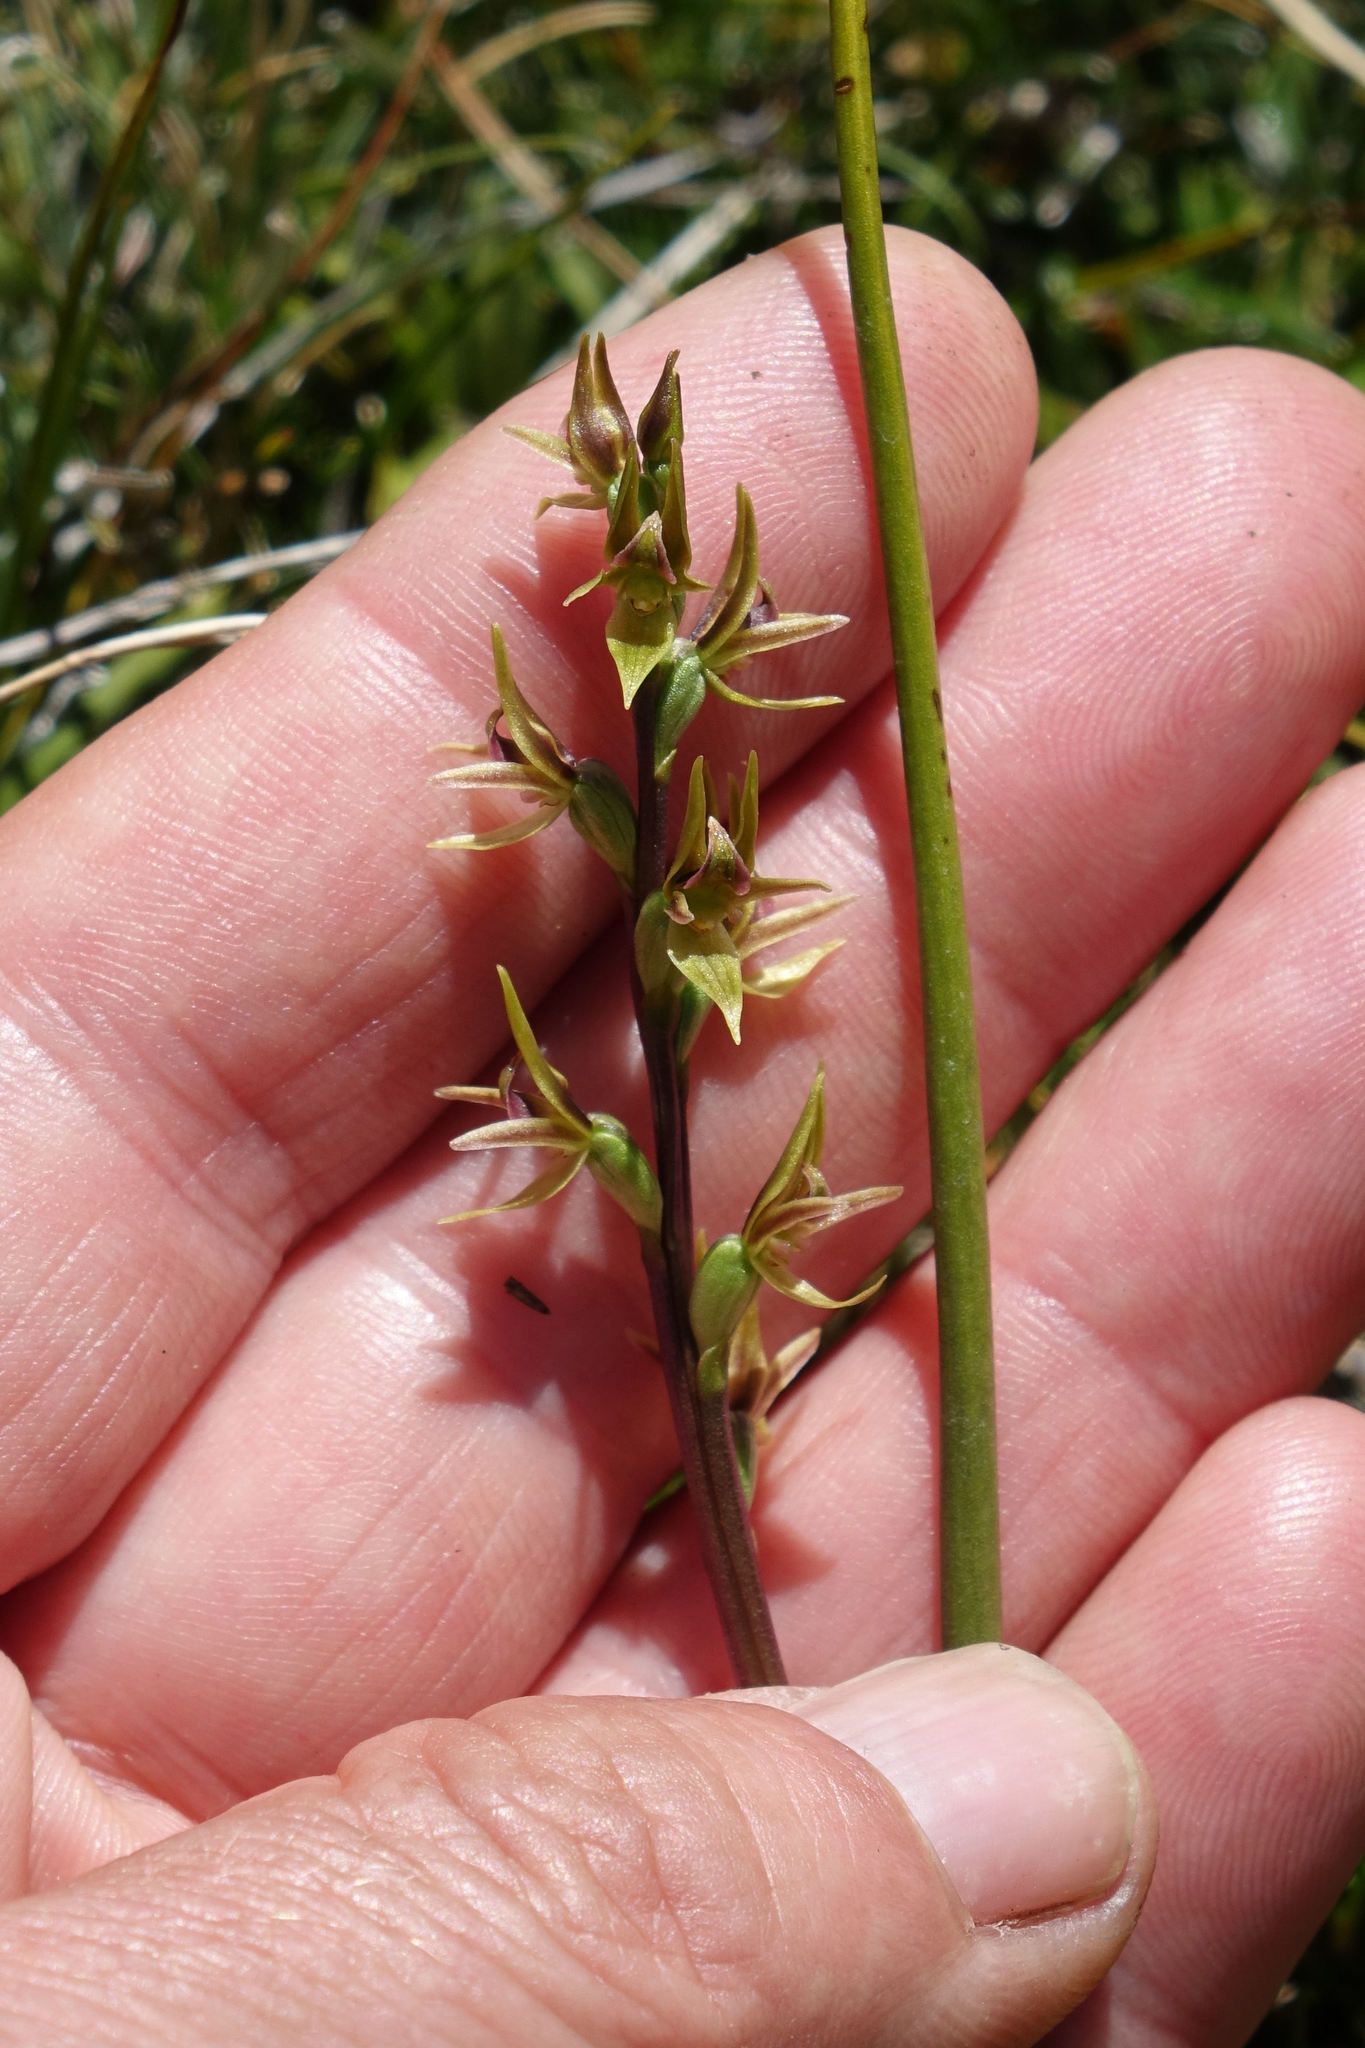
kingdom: Plantae
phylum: Tracheophyta
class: Liliopsida
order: Asparagales
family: Orchidaceae
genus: Prasophyllum
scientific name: Prasophyllum colensoi
